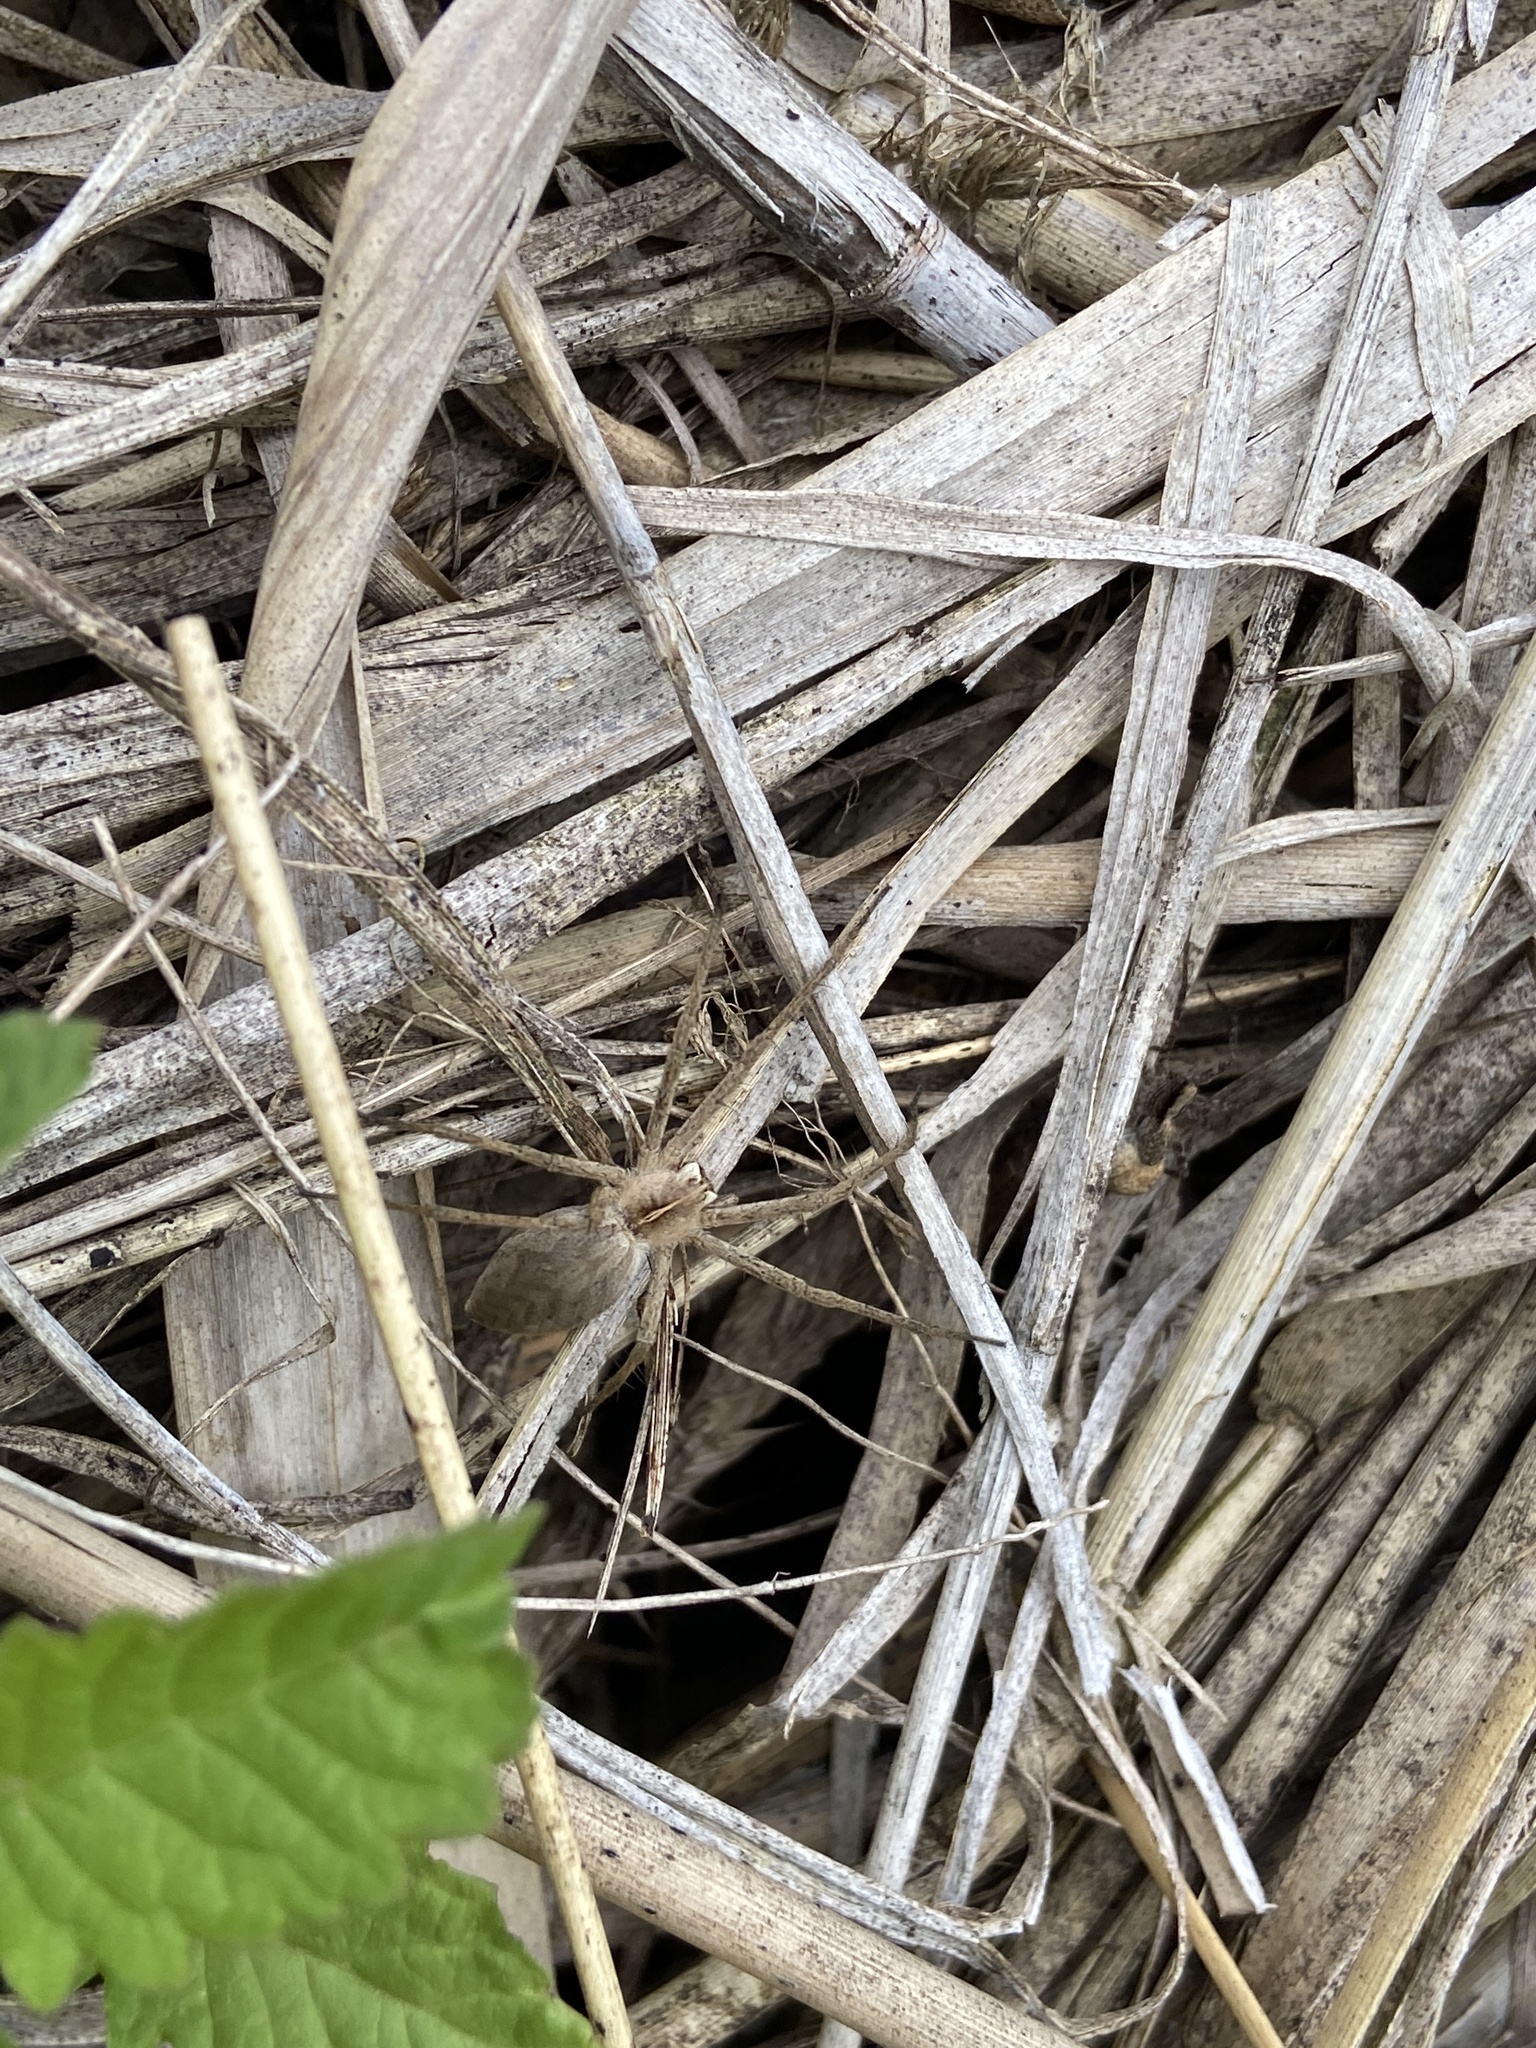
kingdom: Animalia
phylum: Arthropoda
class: Arachnida
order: Araneae
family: Pisauridae
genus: Pisaura
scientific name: Pisaura mirabilis
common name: Tent spider
